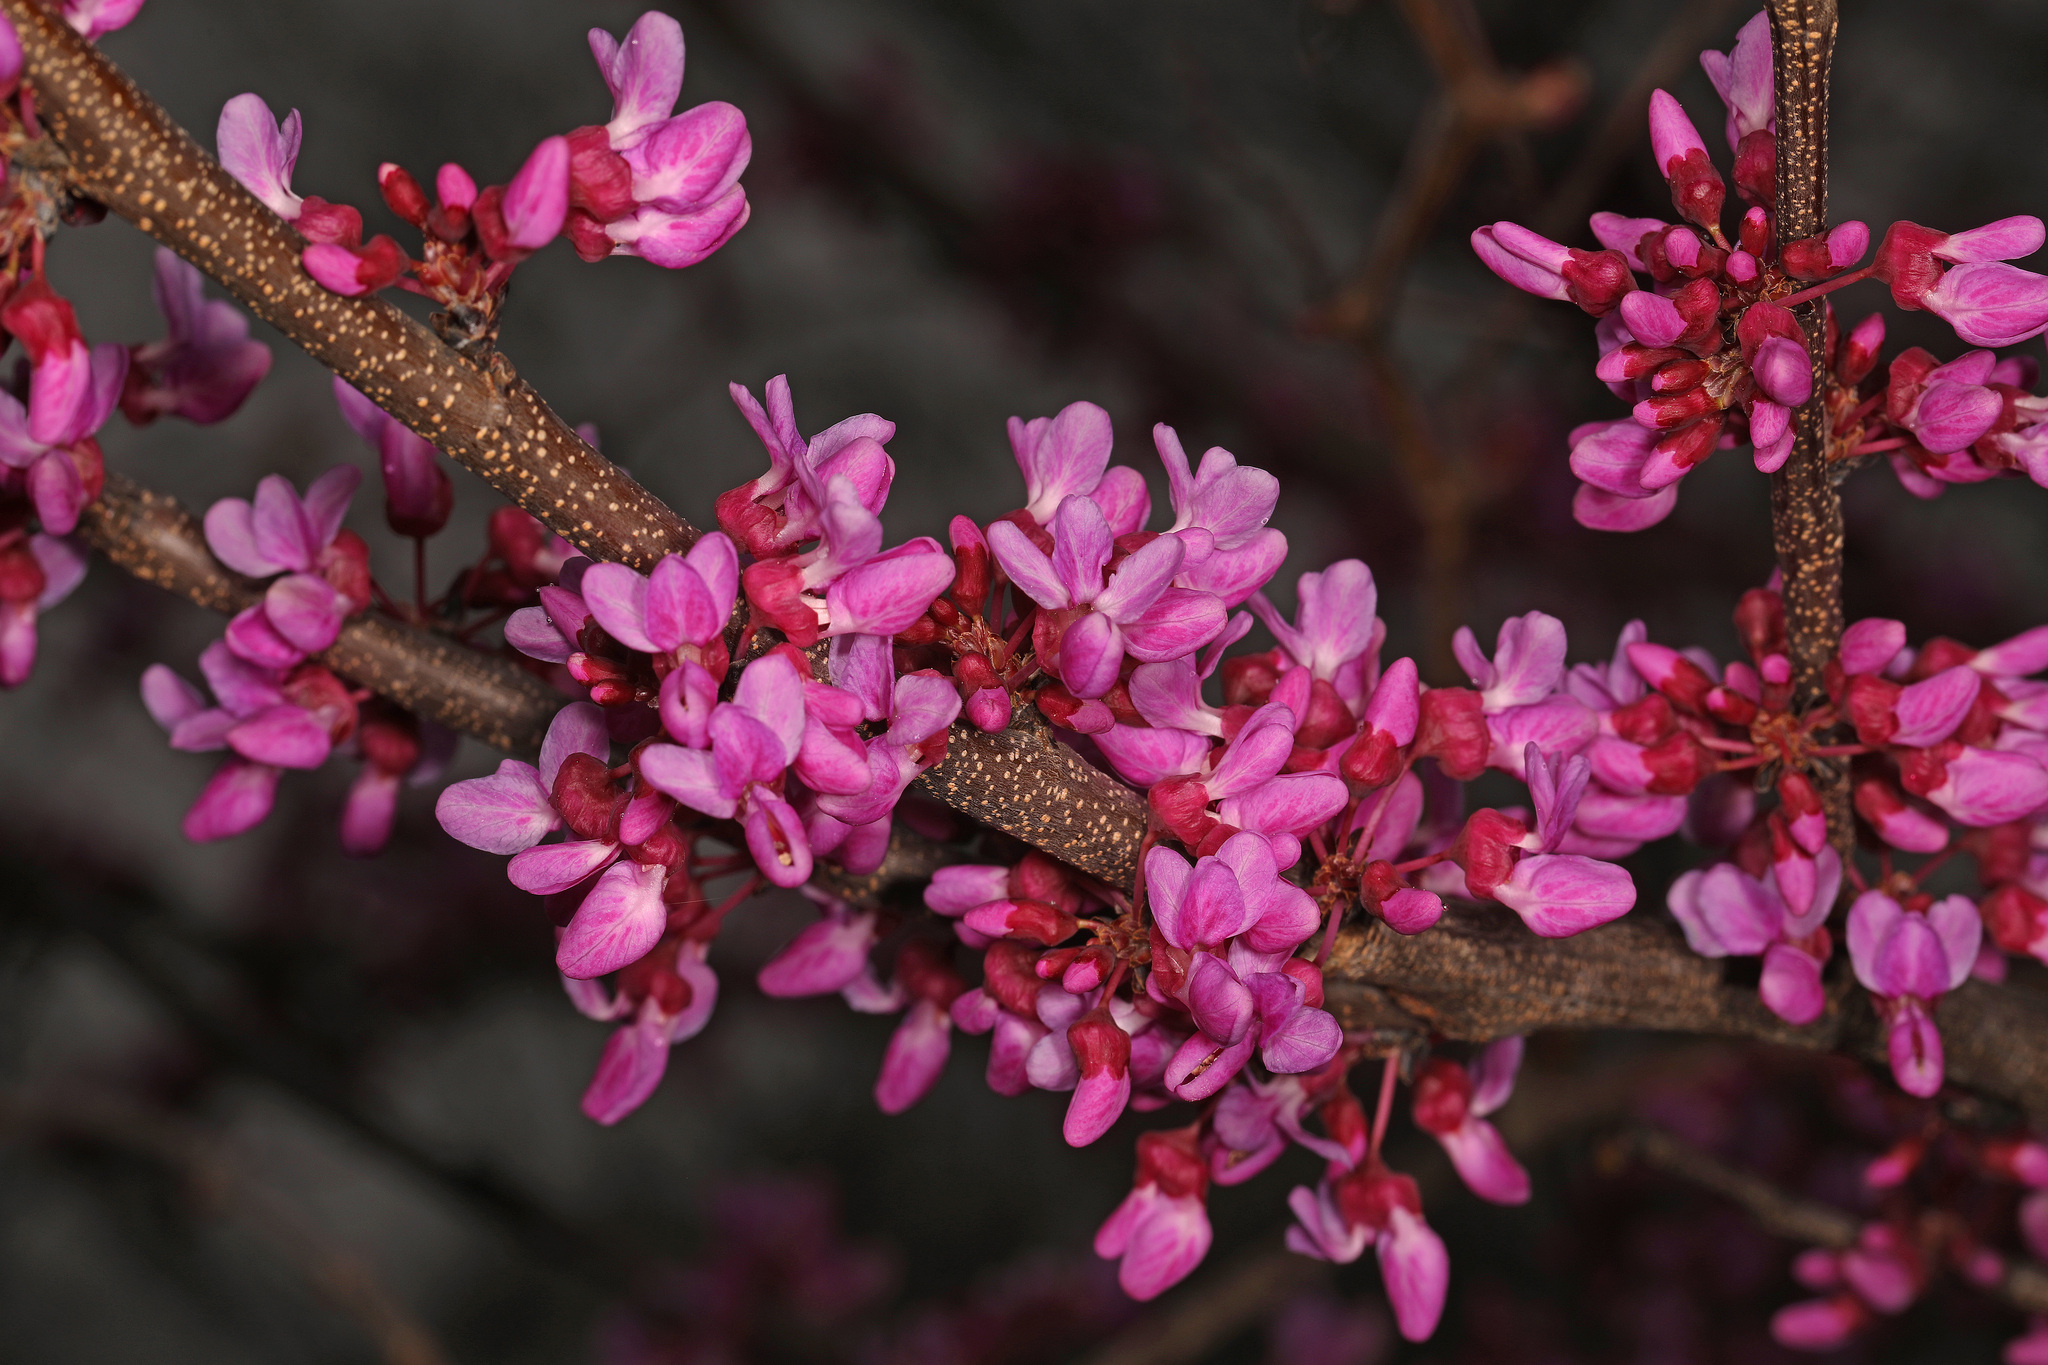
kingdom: Plantae
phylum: Tracheophyta
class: Magnoliopsida
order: Fabales
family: Fabaceae
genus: Cercis
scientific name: Cercis canadensis
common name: Eastern redbud
